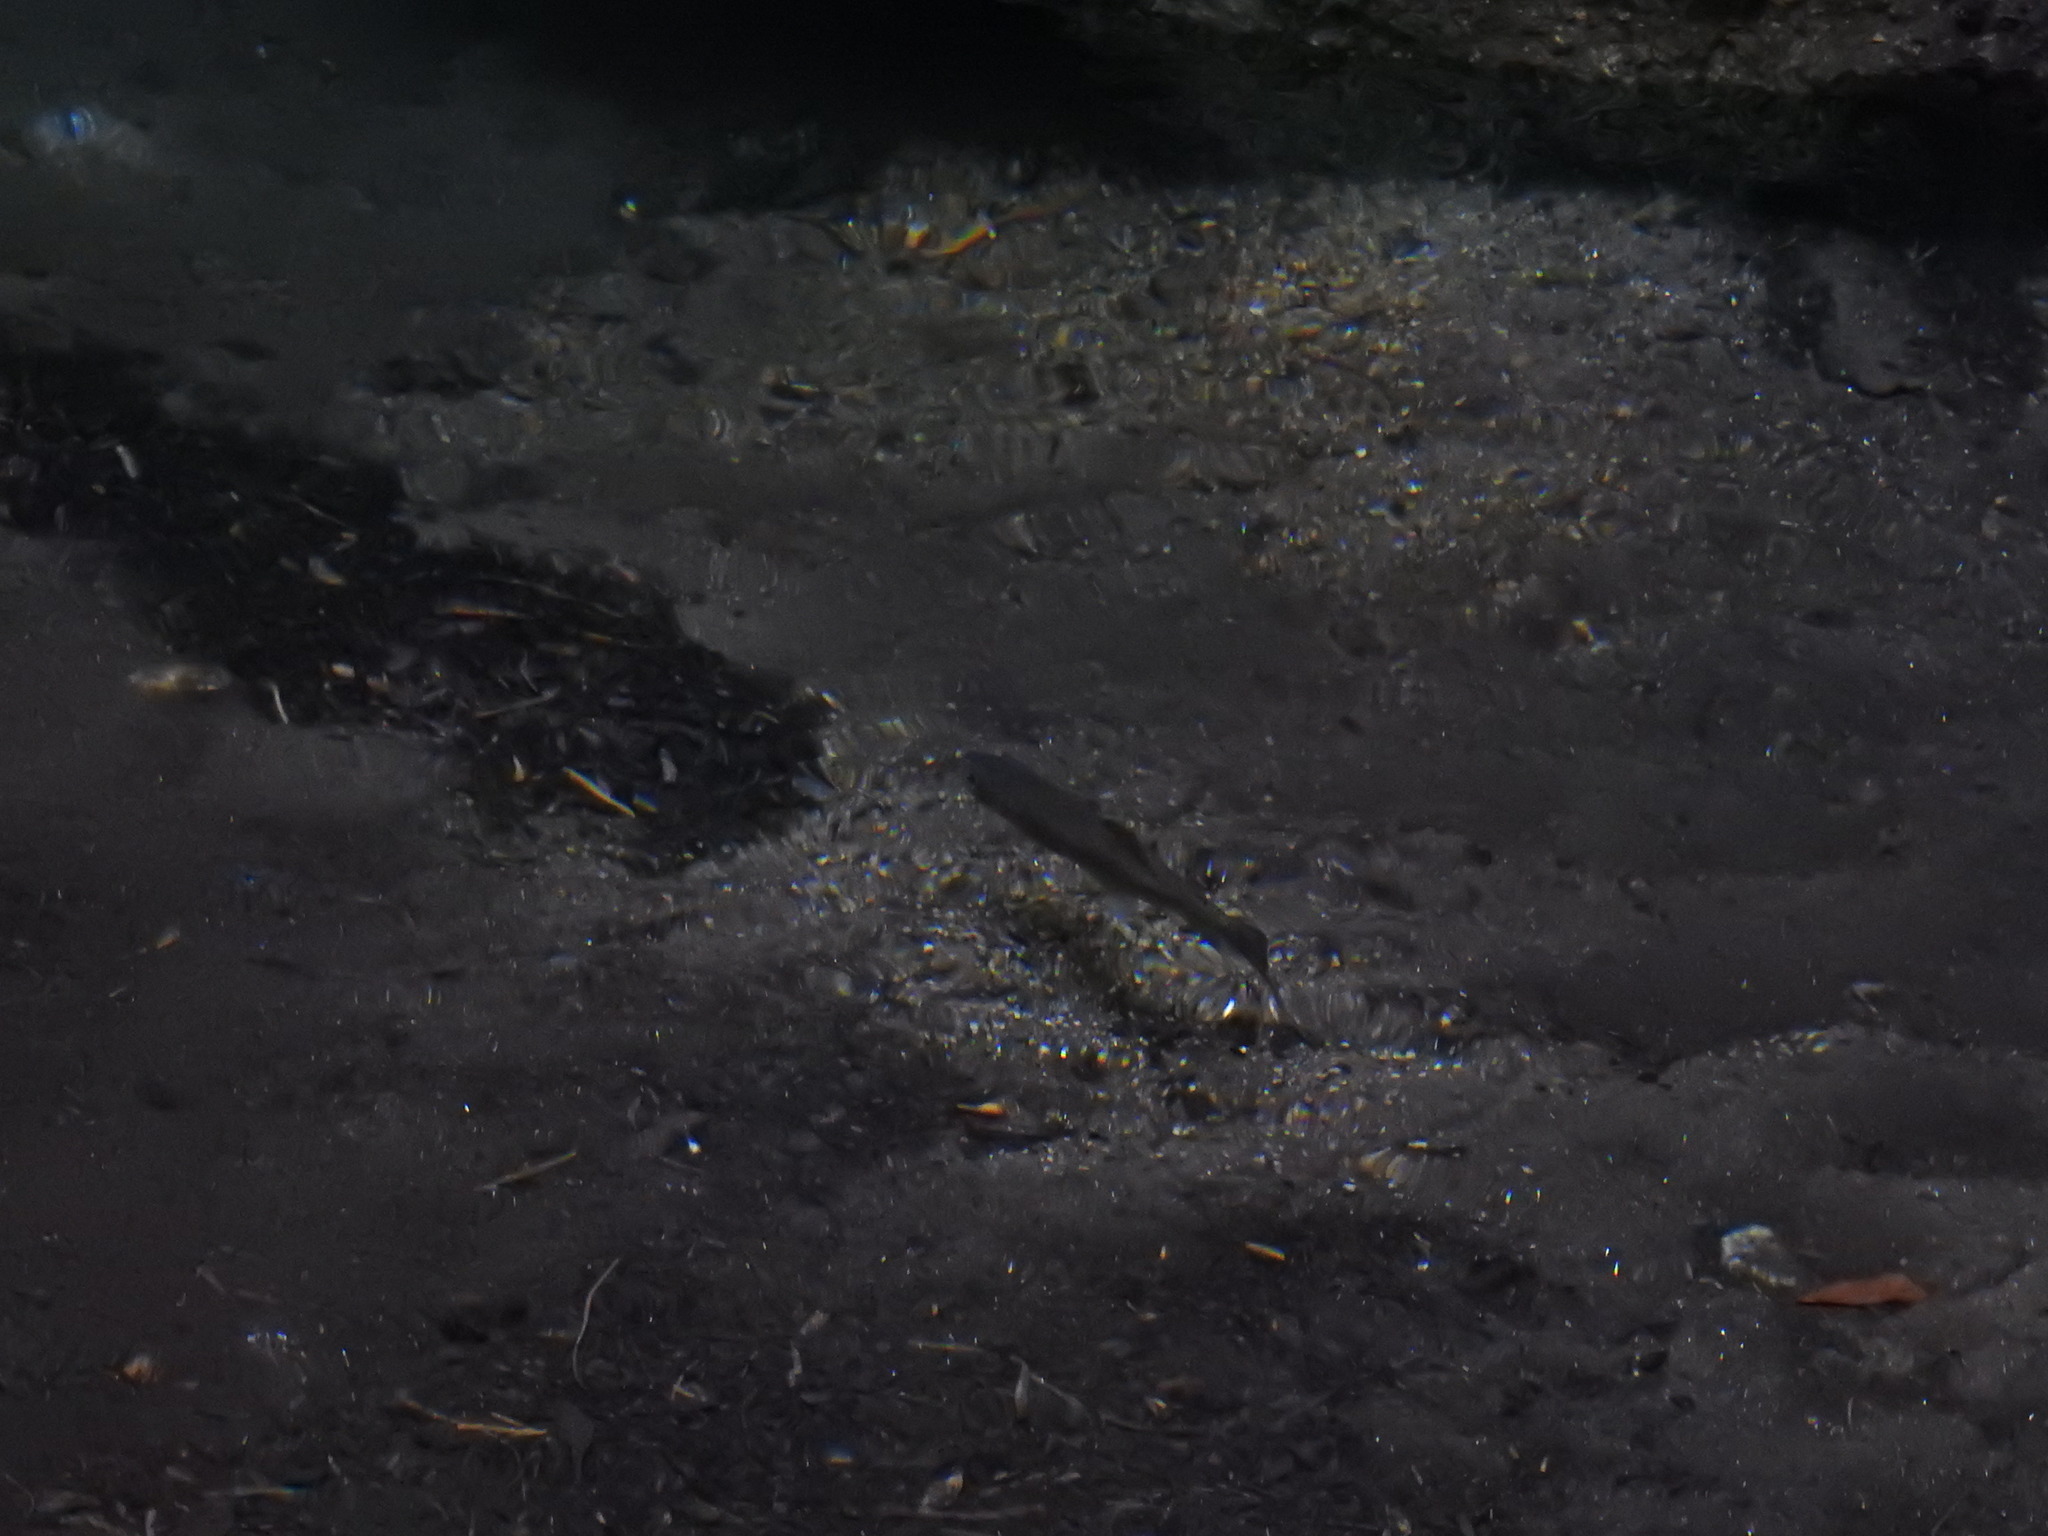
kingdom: Animalia
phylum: Chordata
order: Salmoniformes
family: Salmonidae
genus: Oncorhynchus
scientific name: Oncorhynchus mykiss
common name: Rainbow trout
